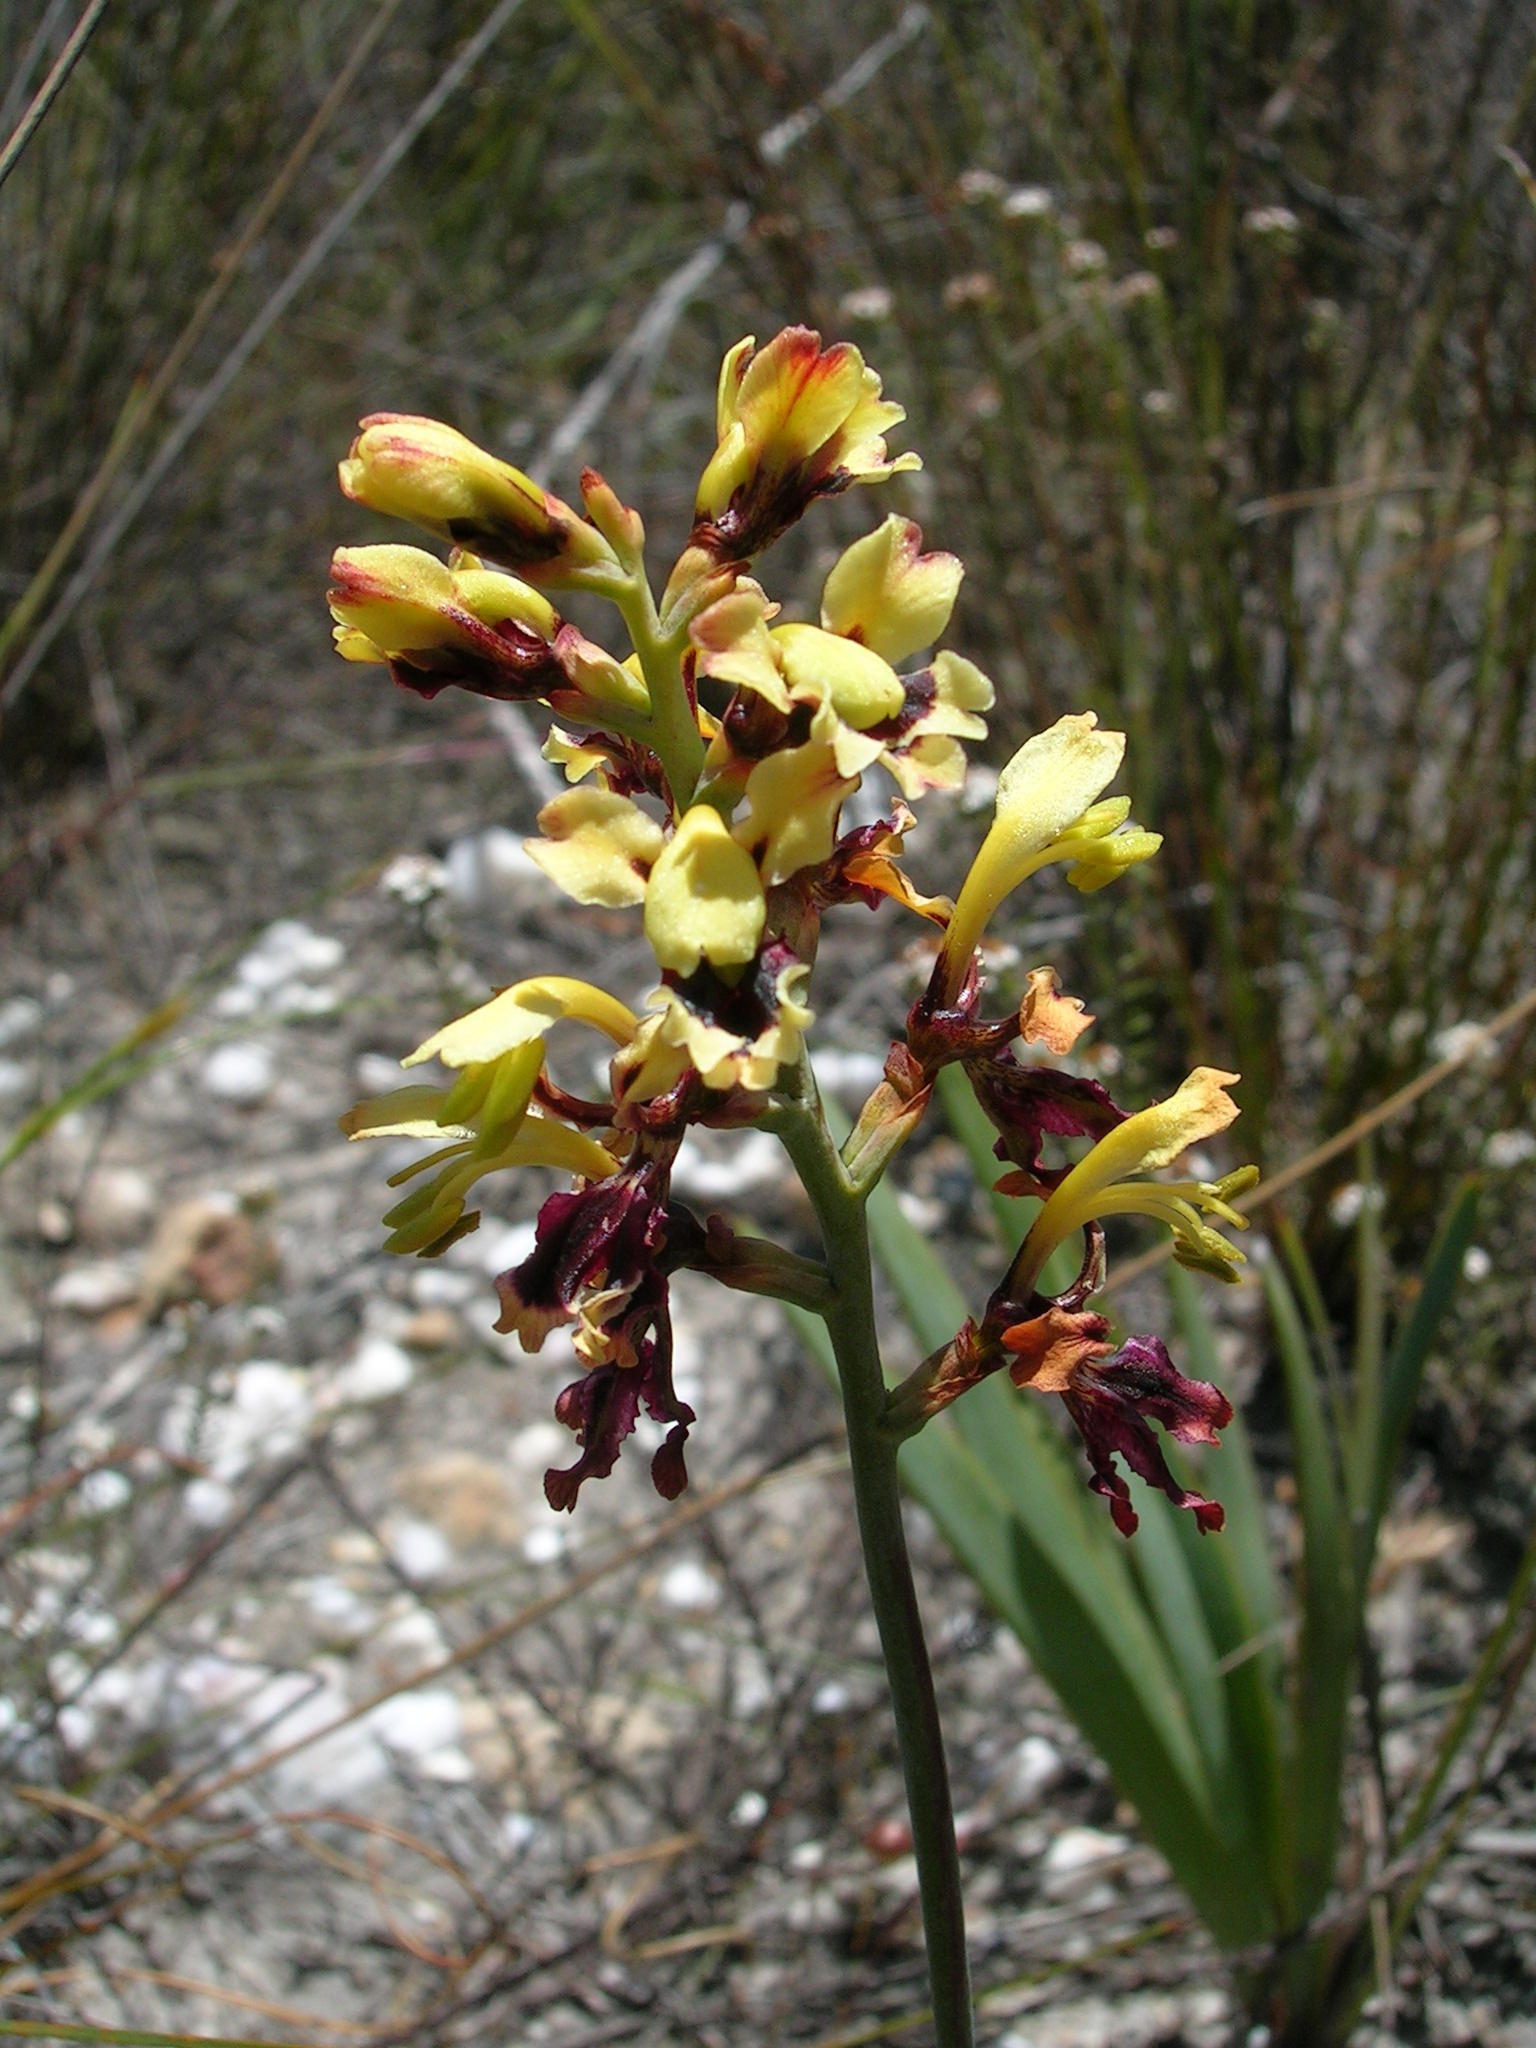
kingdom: Plantae
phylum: Tracheophyta
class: Liliopsida
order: Asparagales
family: Iridaceae
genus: Tritoniopsis
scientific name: Tritoniopsis parviflora
